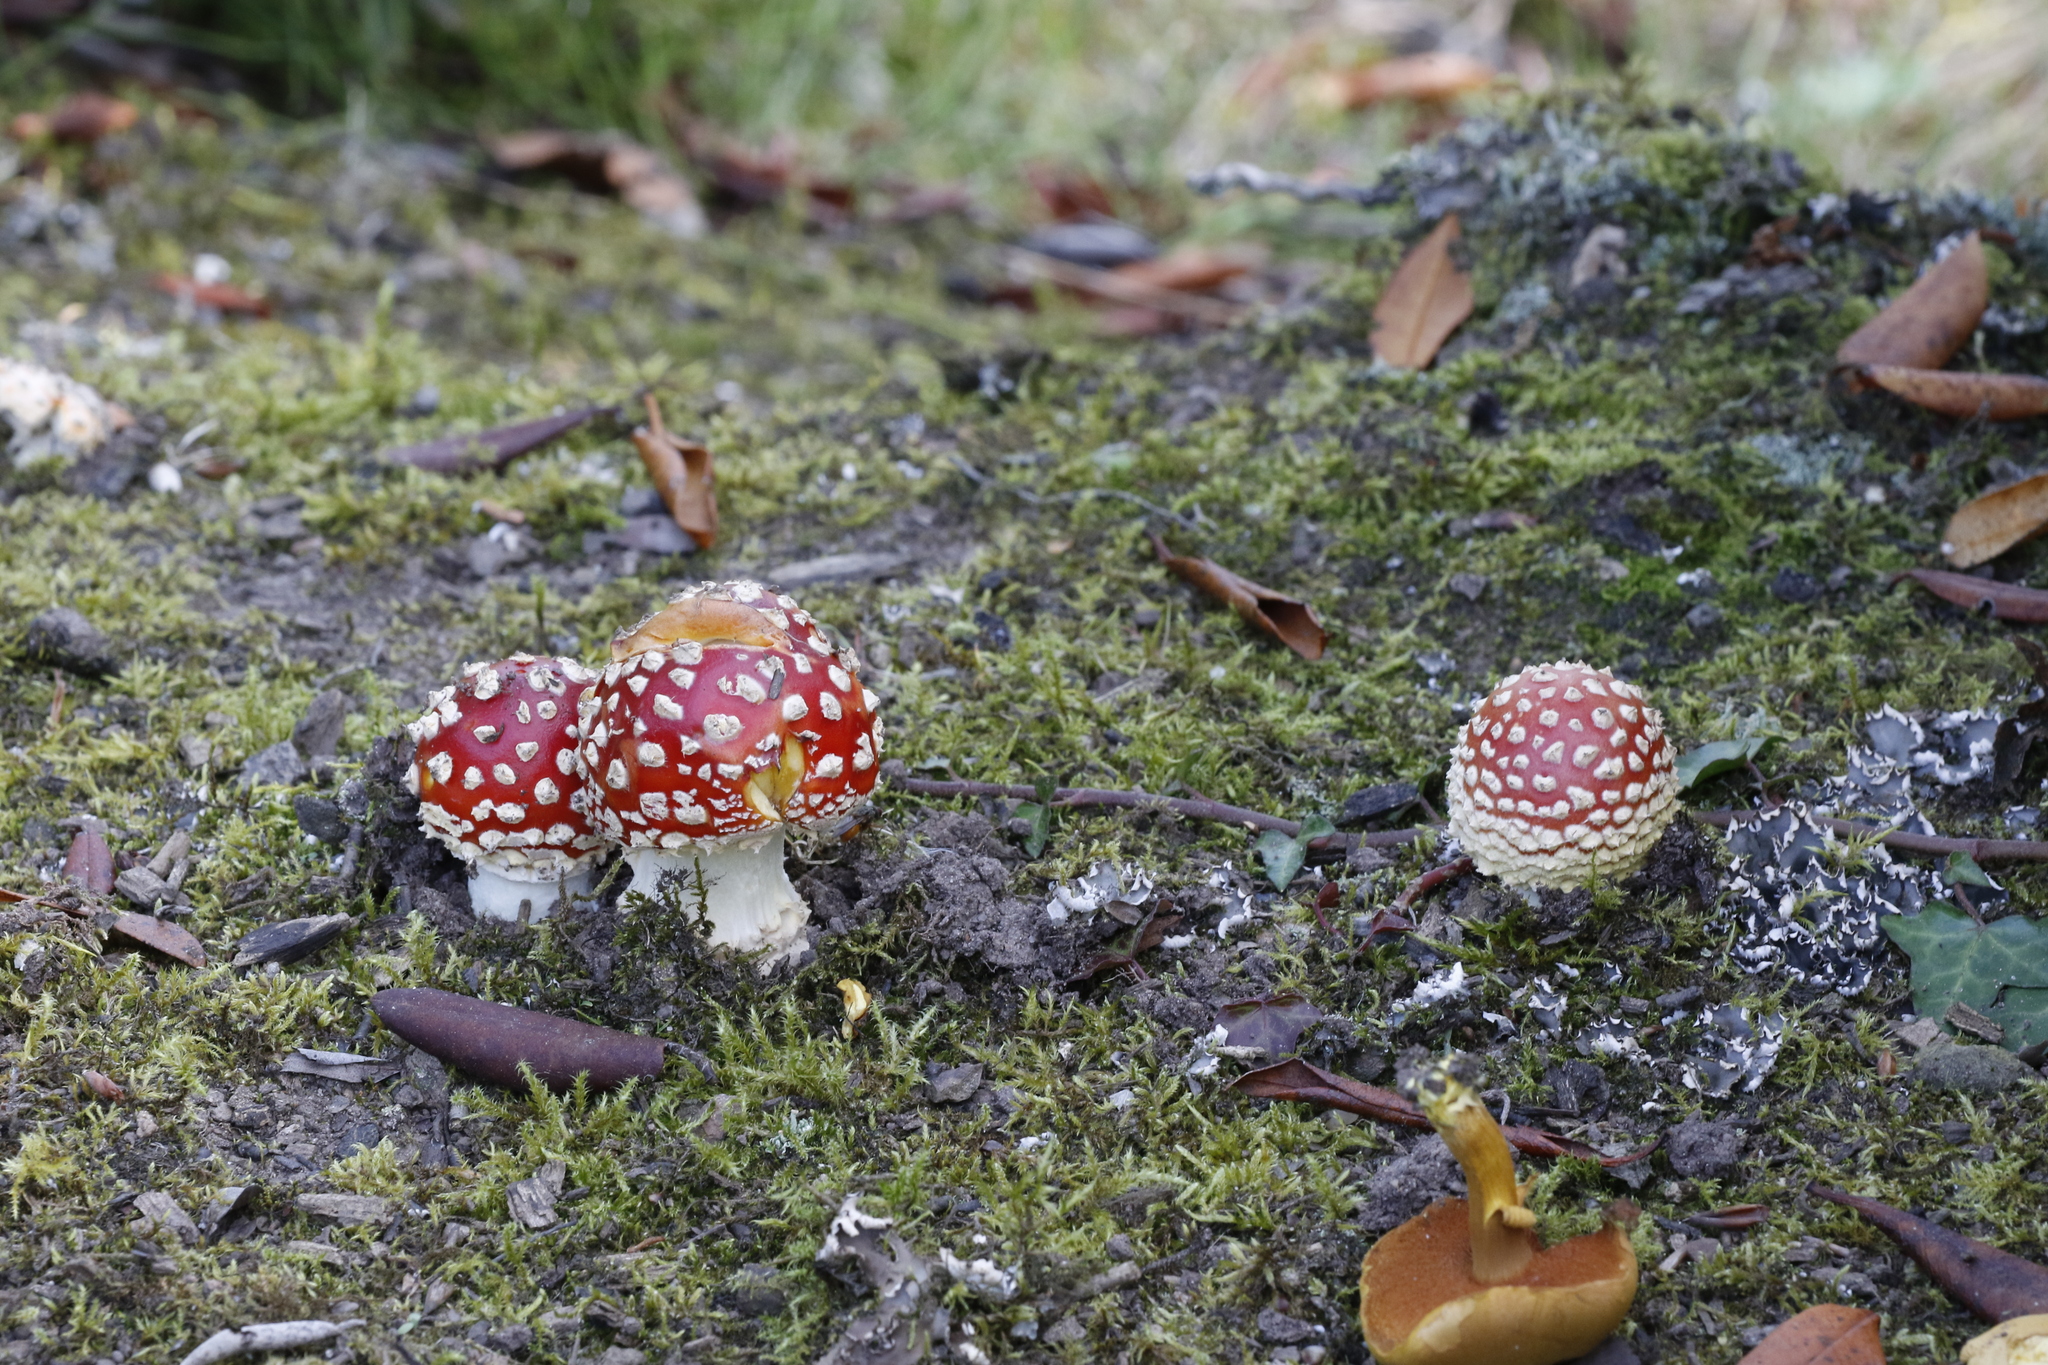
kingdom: Fungi
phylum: Basidiomycota
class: Agaricomycetes
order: Agaricales
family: Amanitaceae
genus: Amanita
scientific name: Amanita muscaria
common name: Fly agaric
